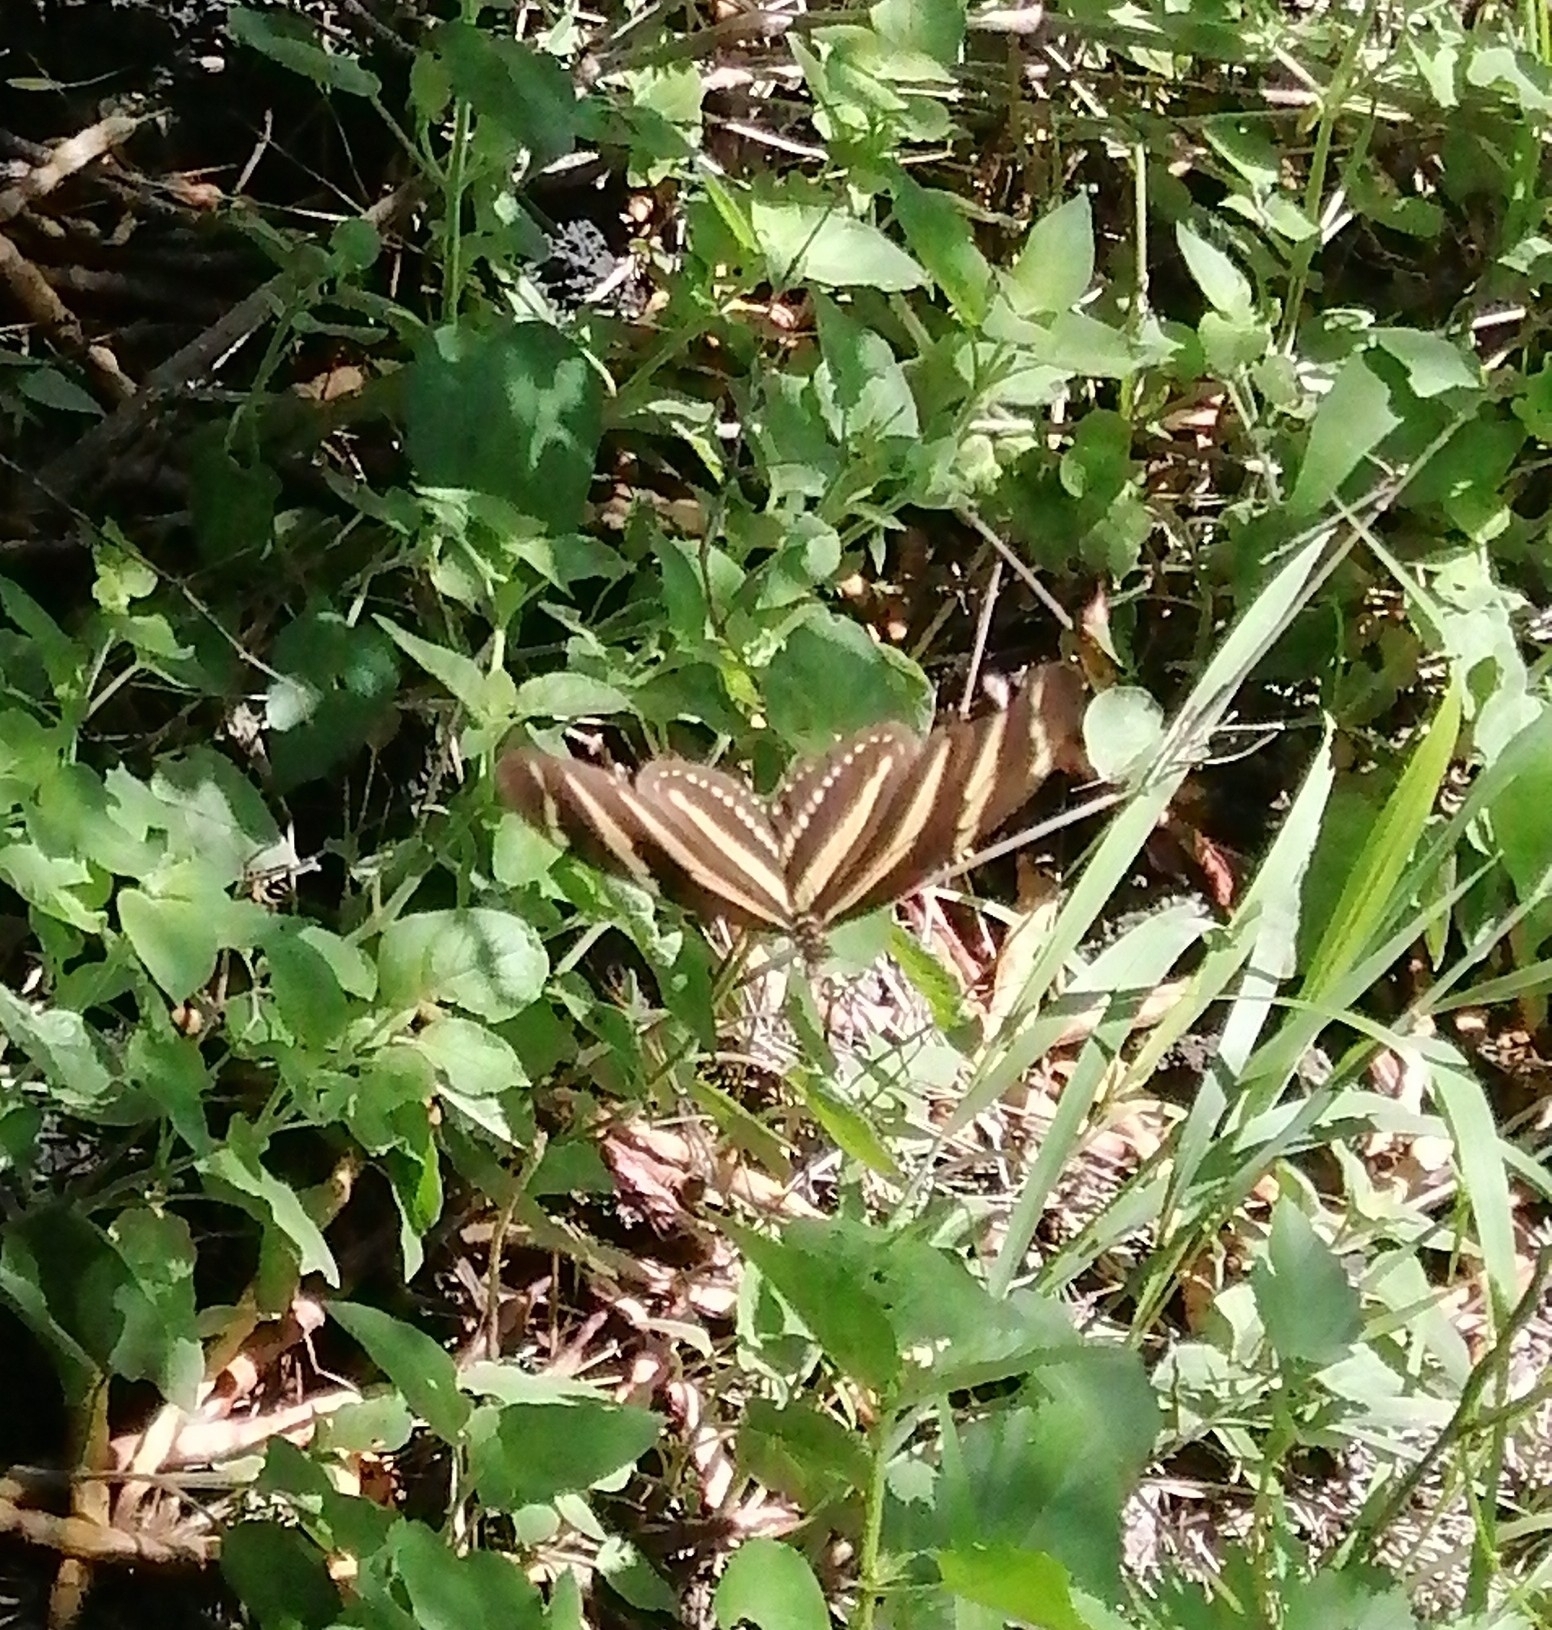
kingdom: Animalia
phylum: Arthropoda
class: Insecta
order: Lepidoptera
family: Nymphalidae
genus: Heliconius
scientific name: Heliconius charithonia
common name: Zebra long wing
